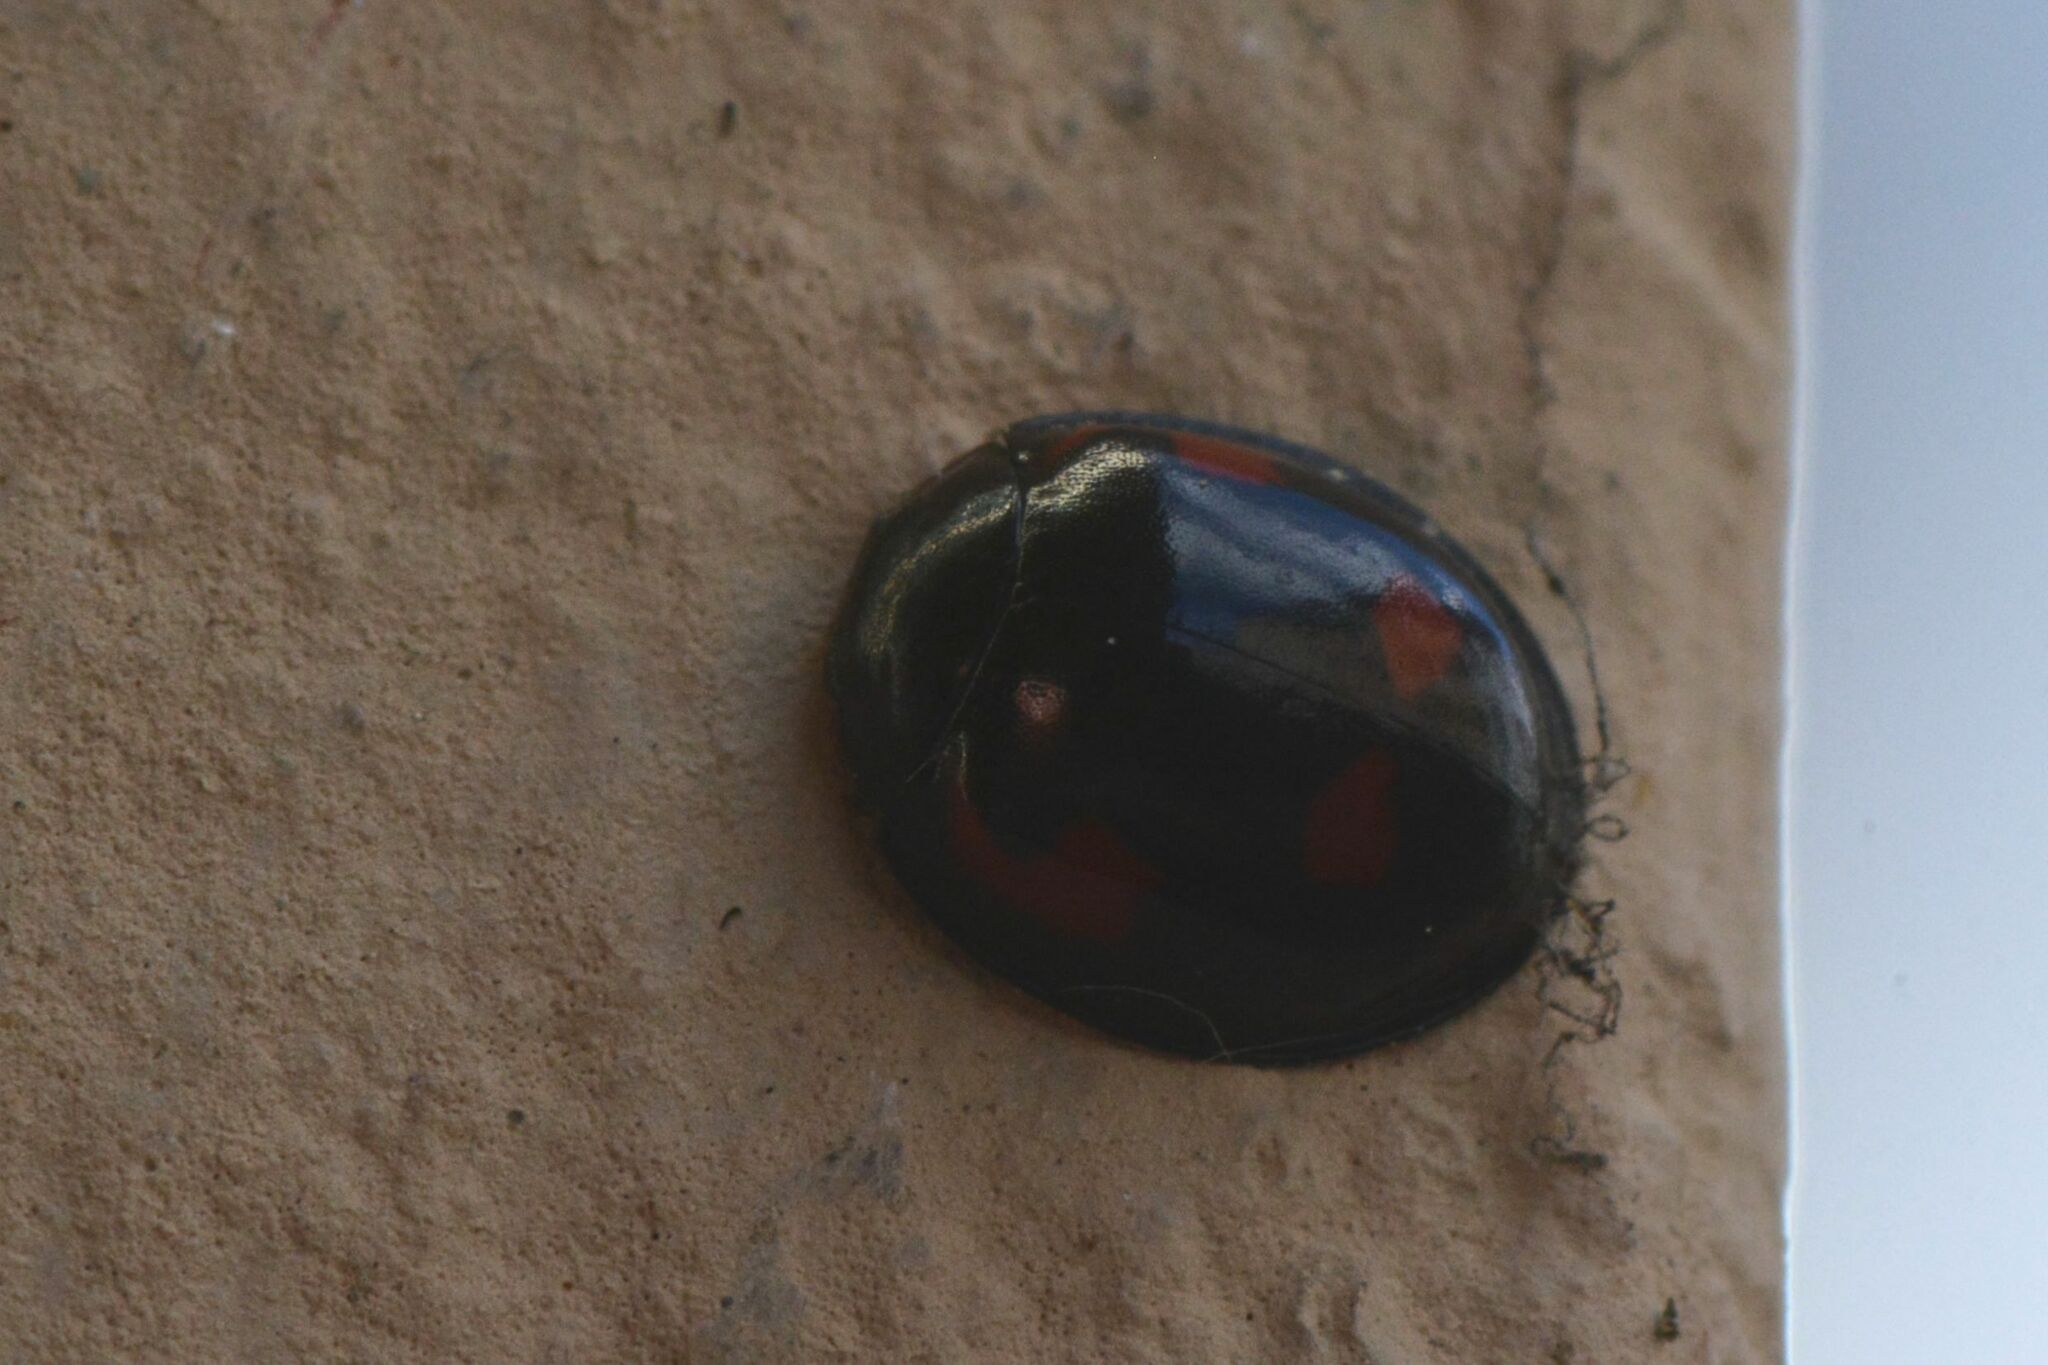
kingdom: Animalia
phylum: Arthropoda
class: Insecta
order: Coleoptera
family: Coccinellidae
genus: Brumus
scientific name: Brumus quadripustulatus
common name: Ladybird beetle
